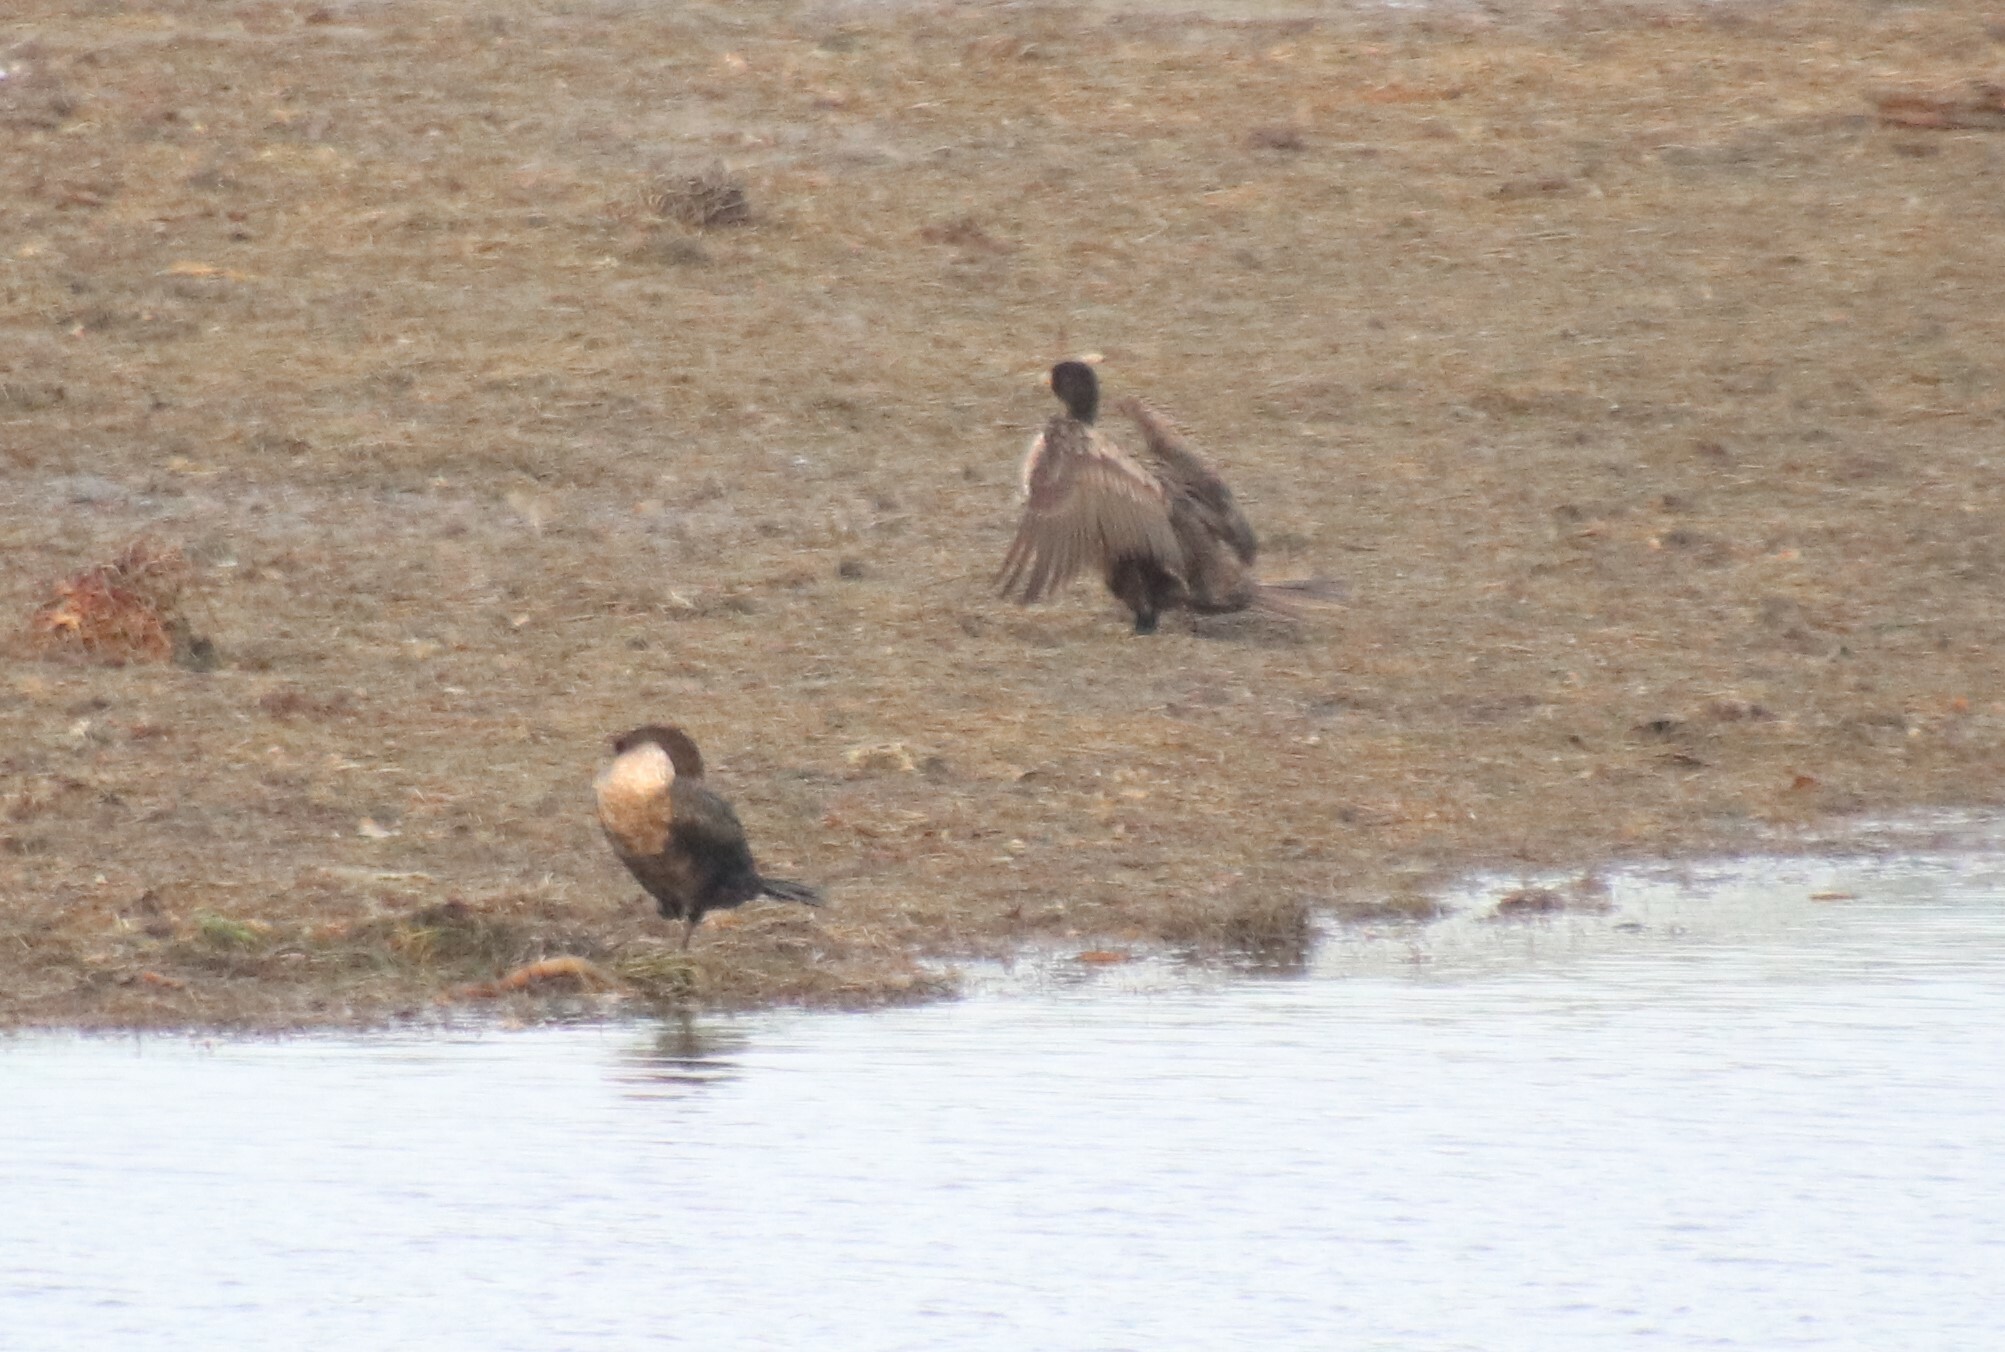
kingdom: Animalia
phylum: Chordata
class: Aves
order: Suliformes
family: Phalacrocoracidae
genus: Phalacrocorax
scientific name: Phalacrocorax auritus
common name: Double-crested cormorant
